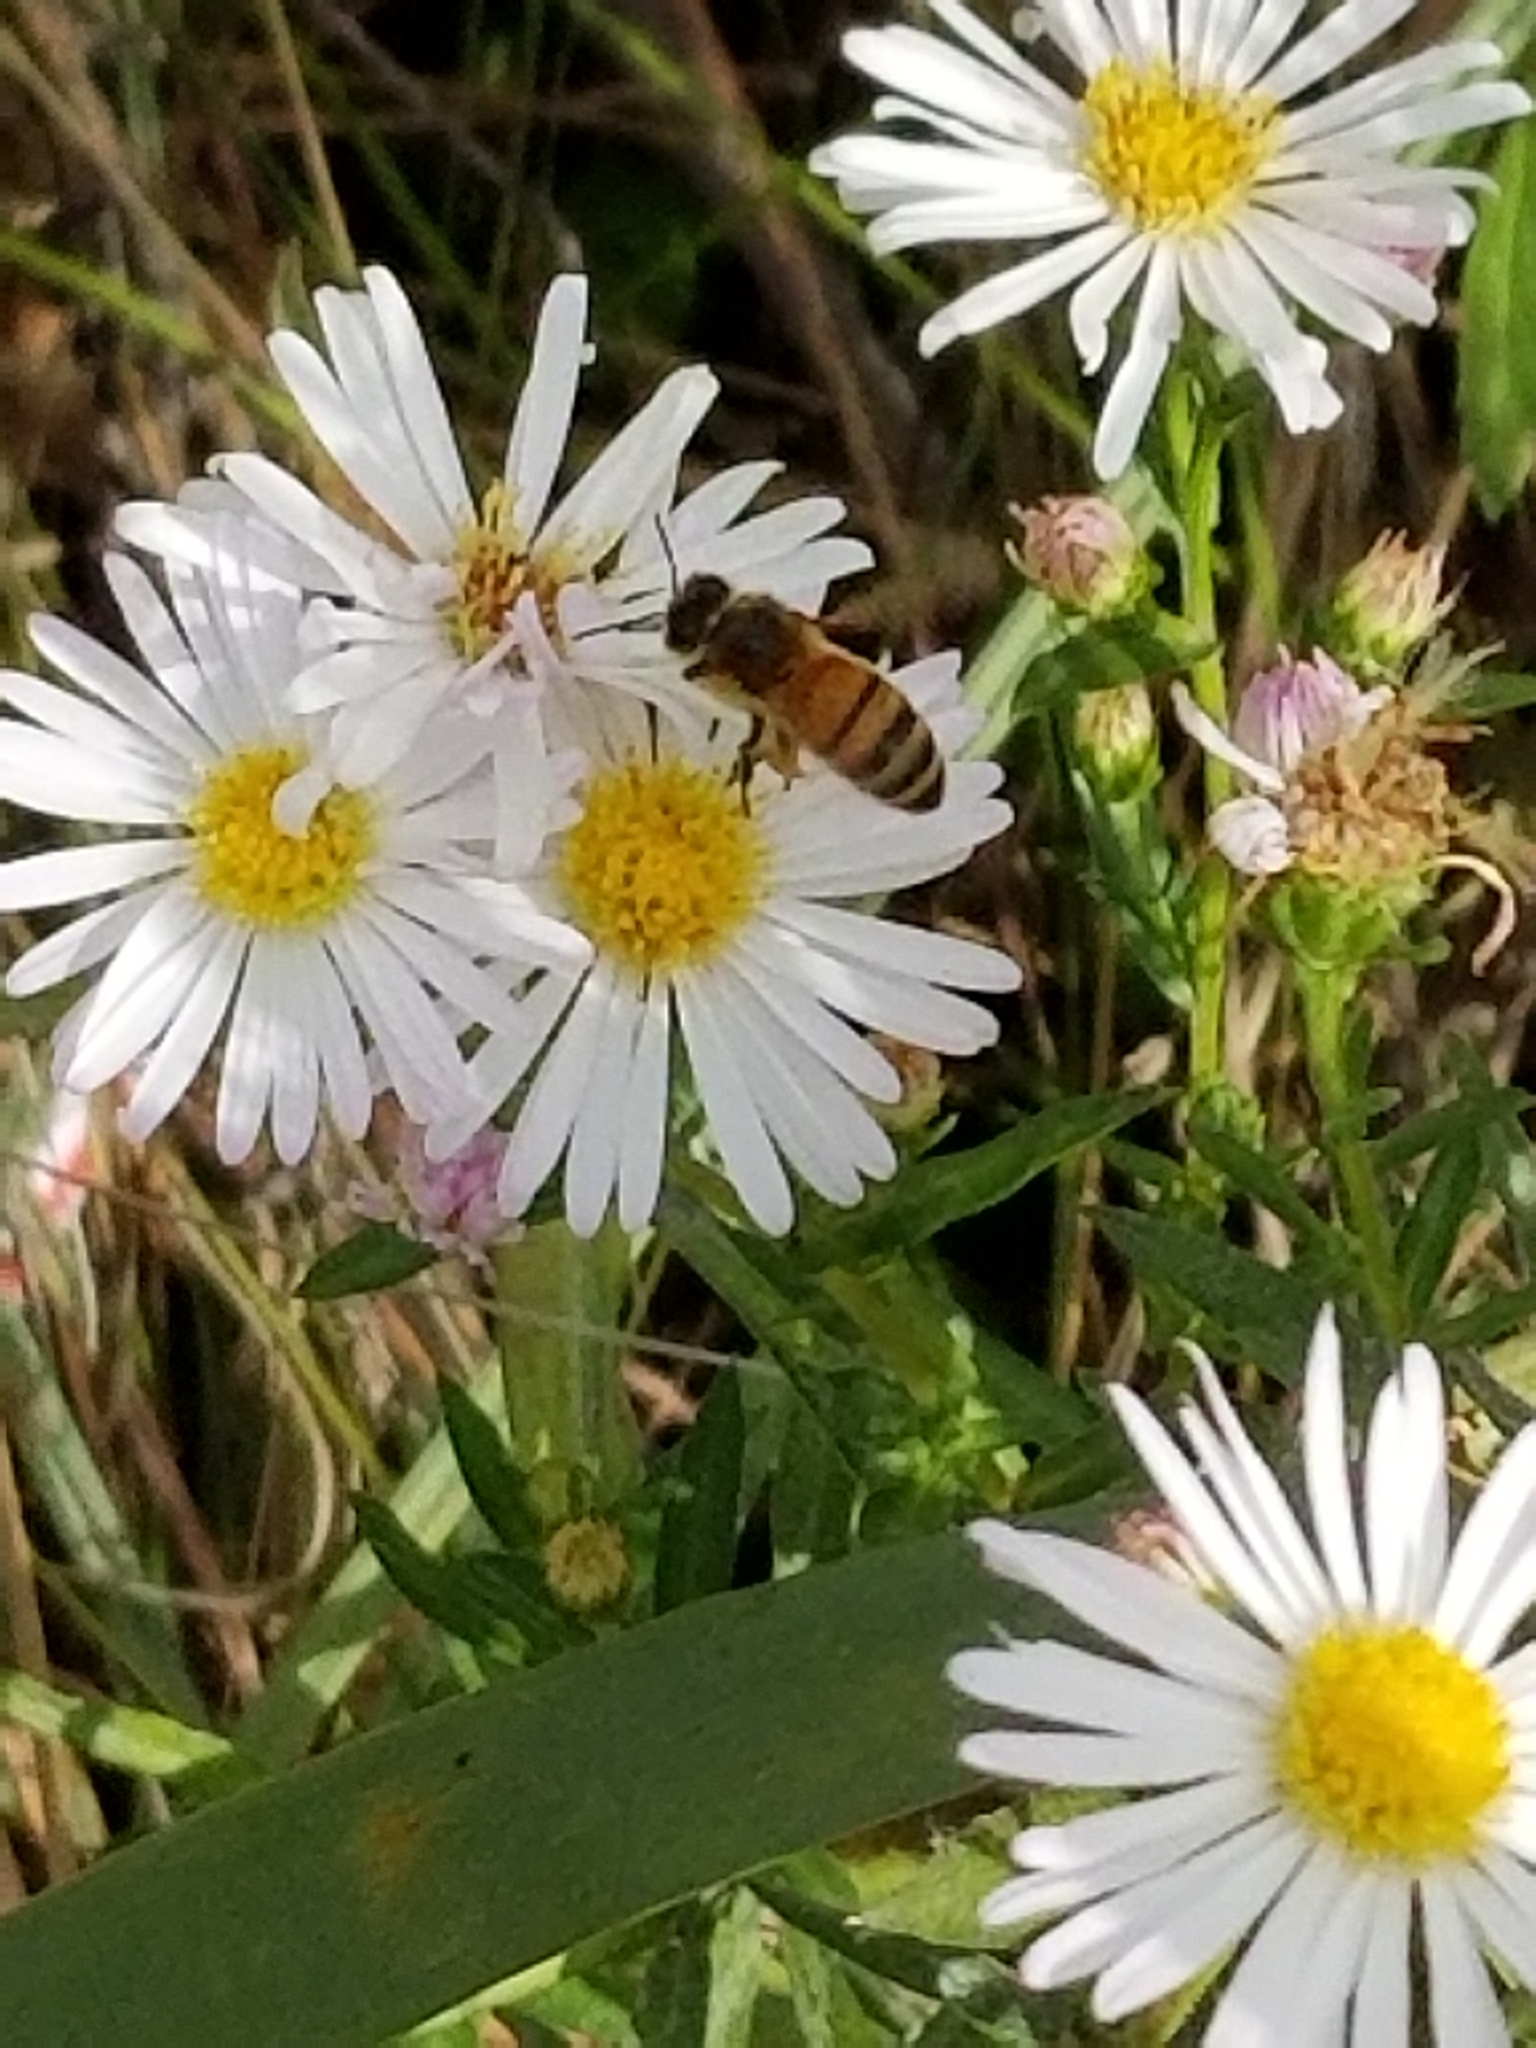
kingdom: Animalia
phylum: Arthropoda
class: Insecta
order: Hymenoptera
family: Apidae
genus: Apis
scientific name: Apis mellifera
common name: Honey bee
